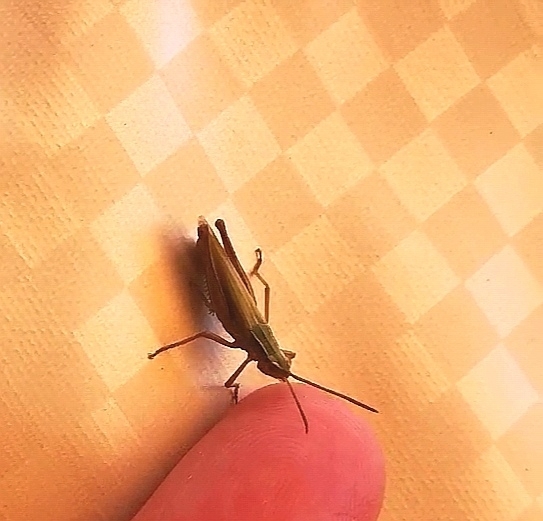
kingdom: Animalia
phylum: Arthropoda
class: Insecta
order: Orthoptera
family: Acrididae
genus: Chorthippus
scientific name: Chorthippus albomarginatus
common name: Lesser marsh grasshopper
